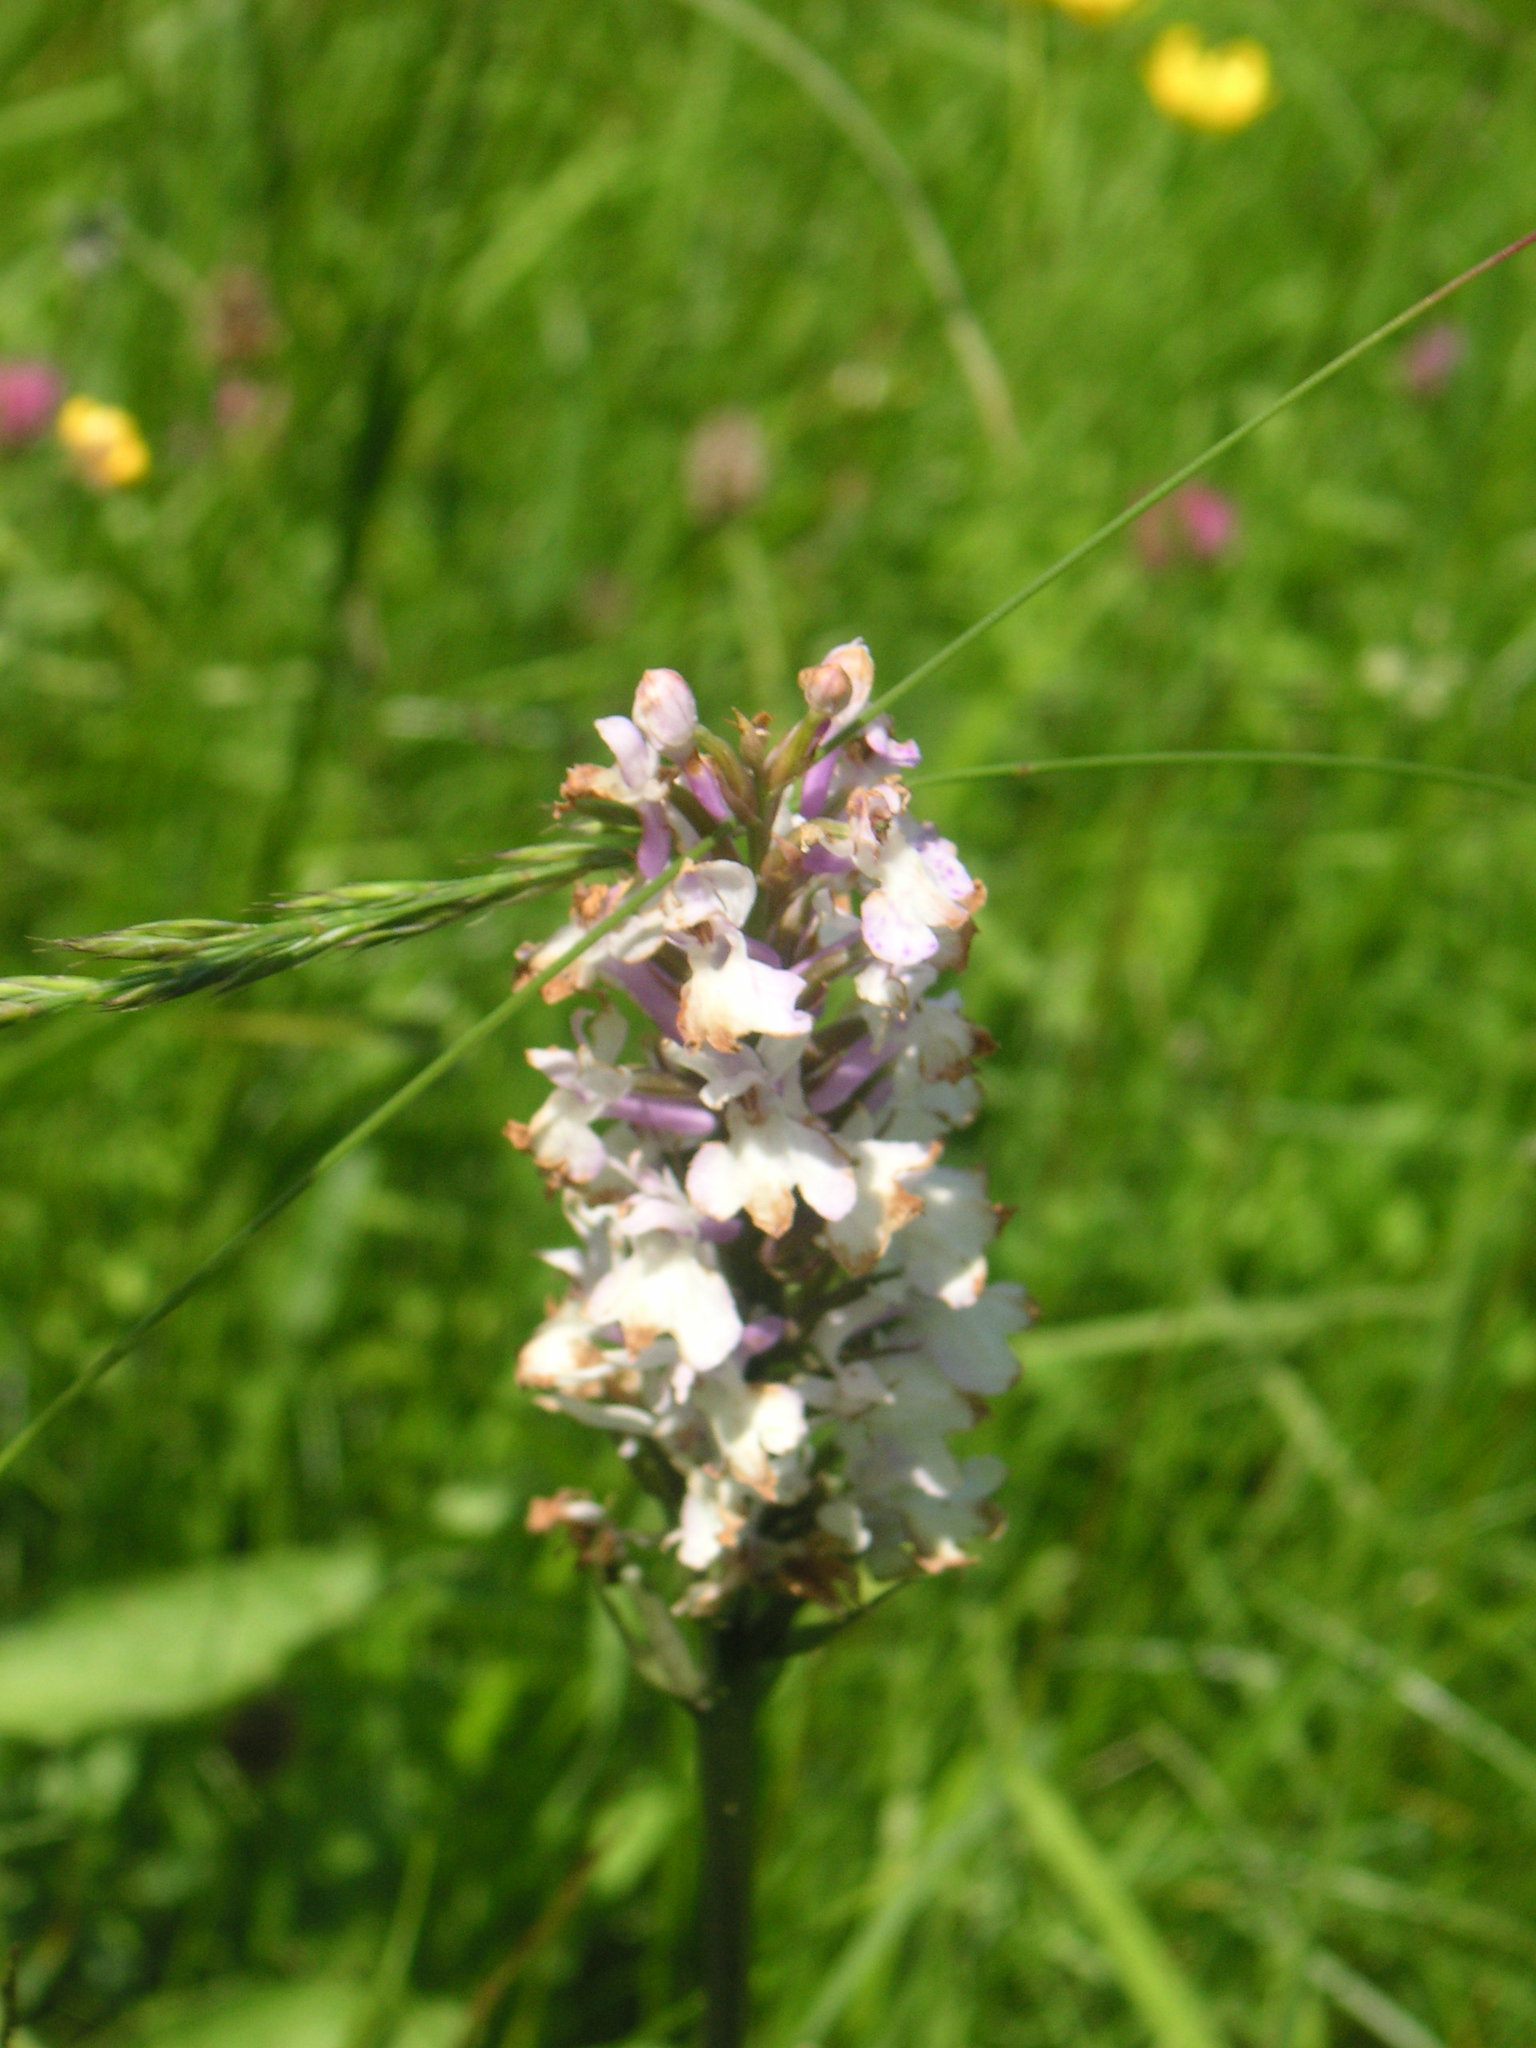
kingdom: Plantae
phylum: Tracheophyta
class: Liliopsida
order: Asparagales
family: Orchidaceae
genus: Dactylorhiza
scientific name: Dactylorhiza maculata
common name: Heath spotted-orchid
